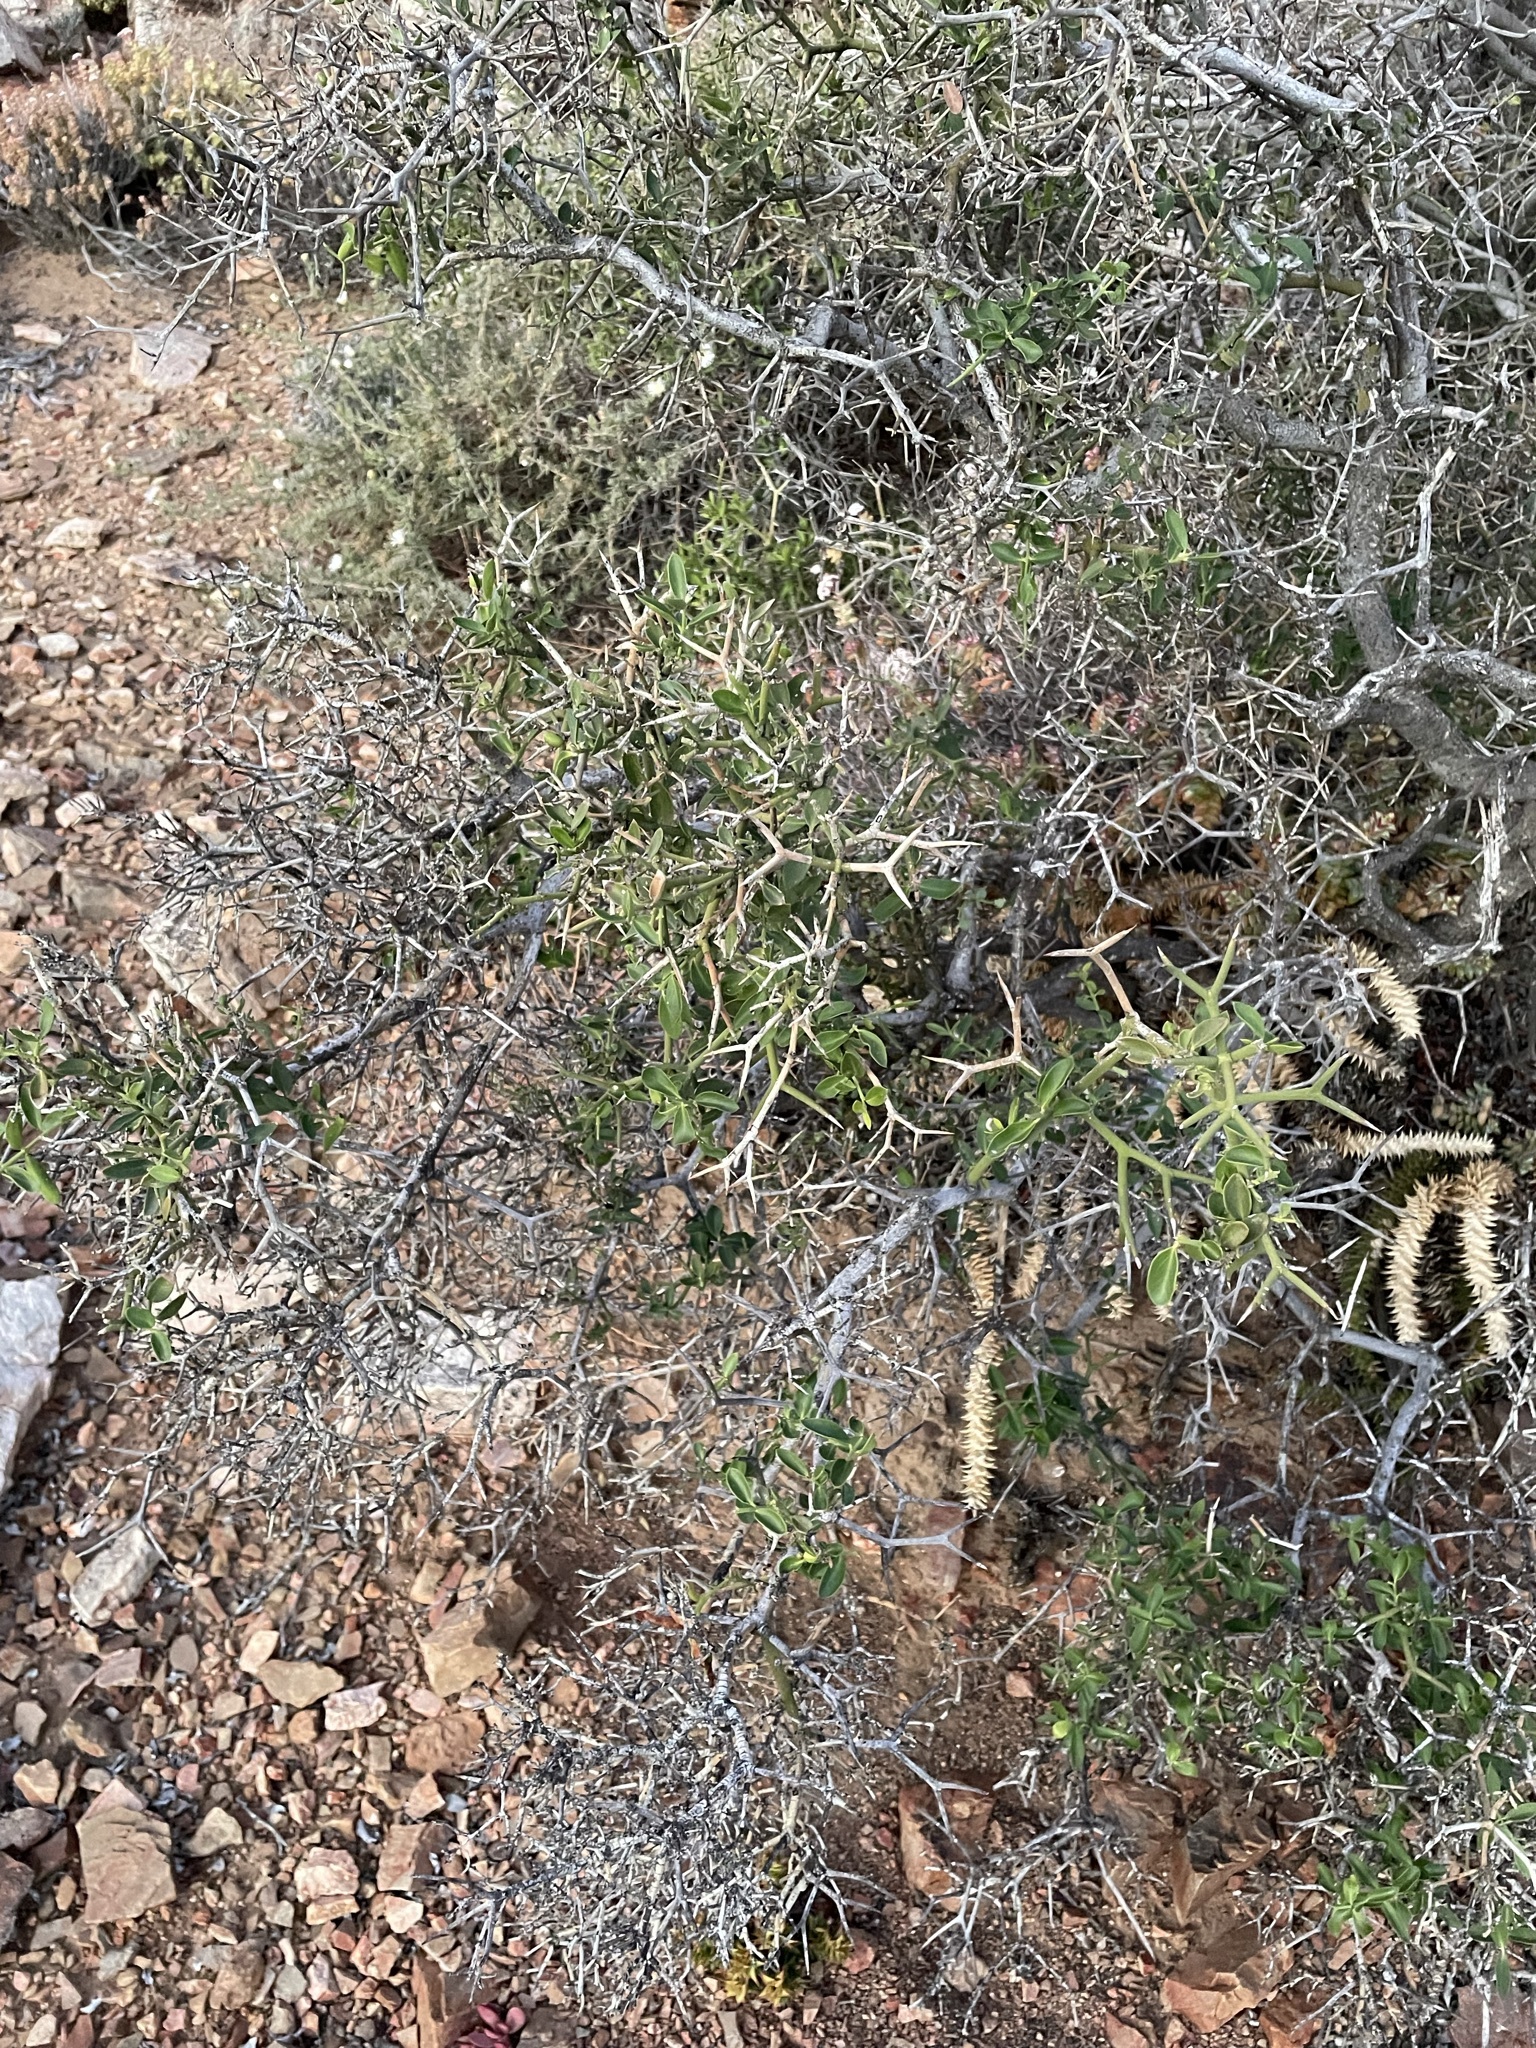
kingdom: Plantae
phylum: Tracheophyta
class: Magnoliopsida
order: Gentianales
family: Apocynaceae
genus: Carissa
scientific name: Carissa haematocarpa
